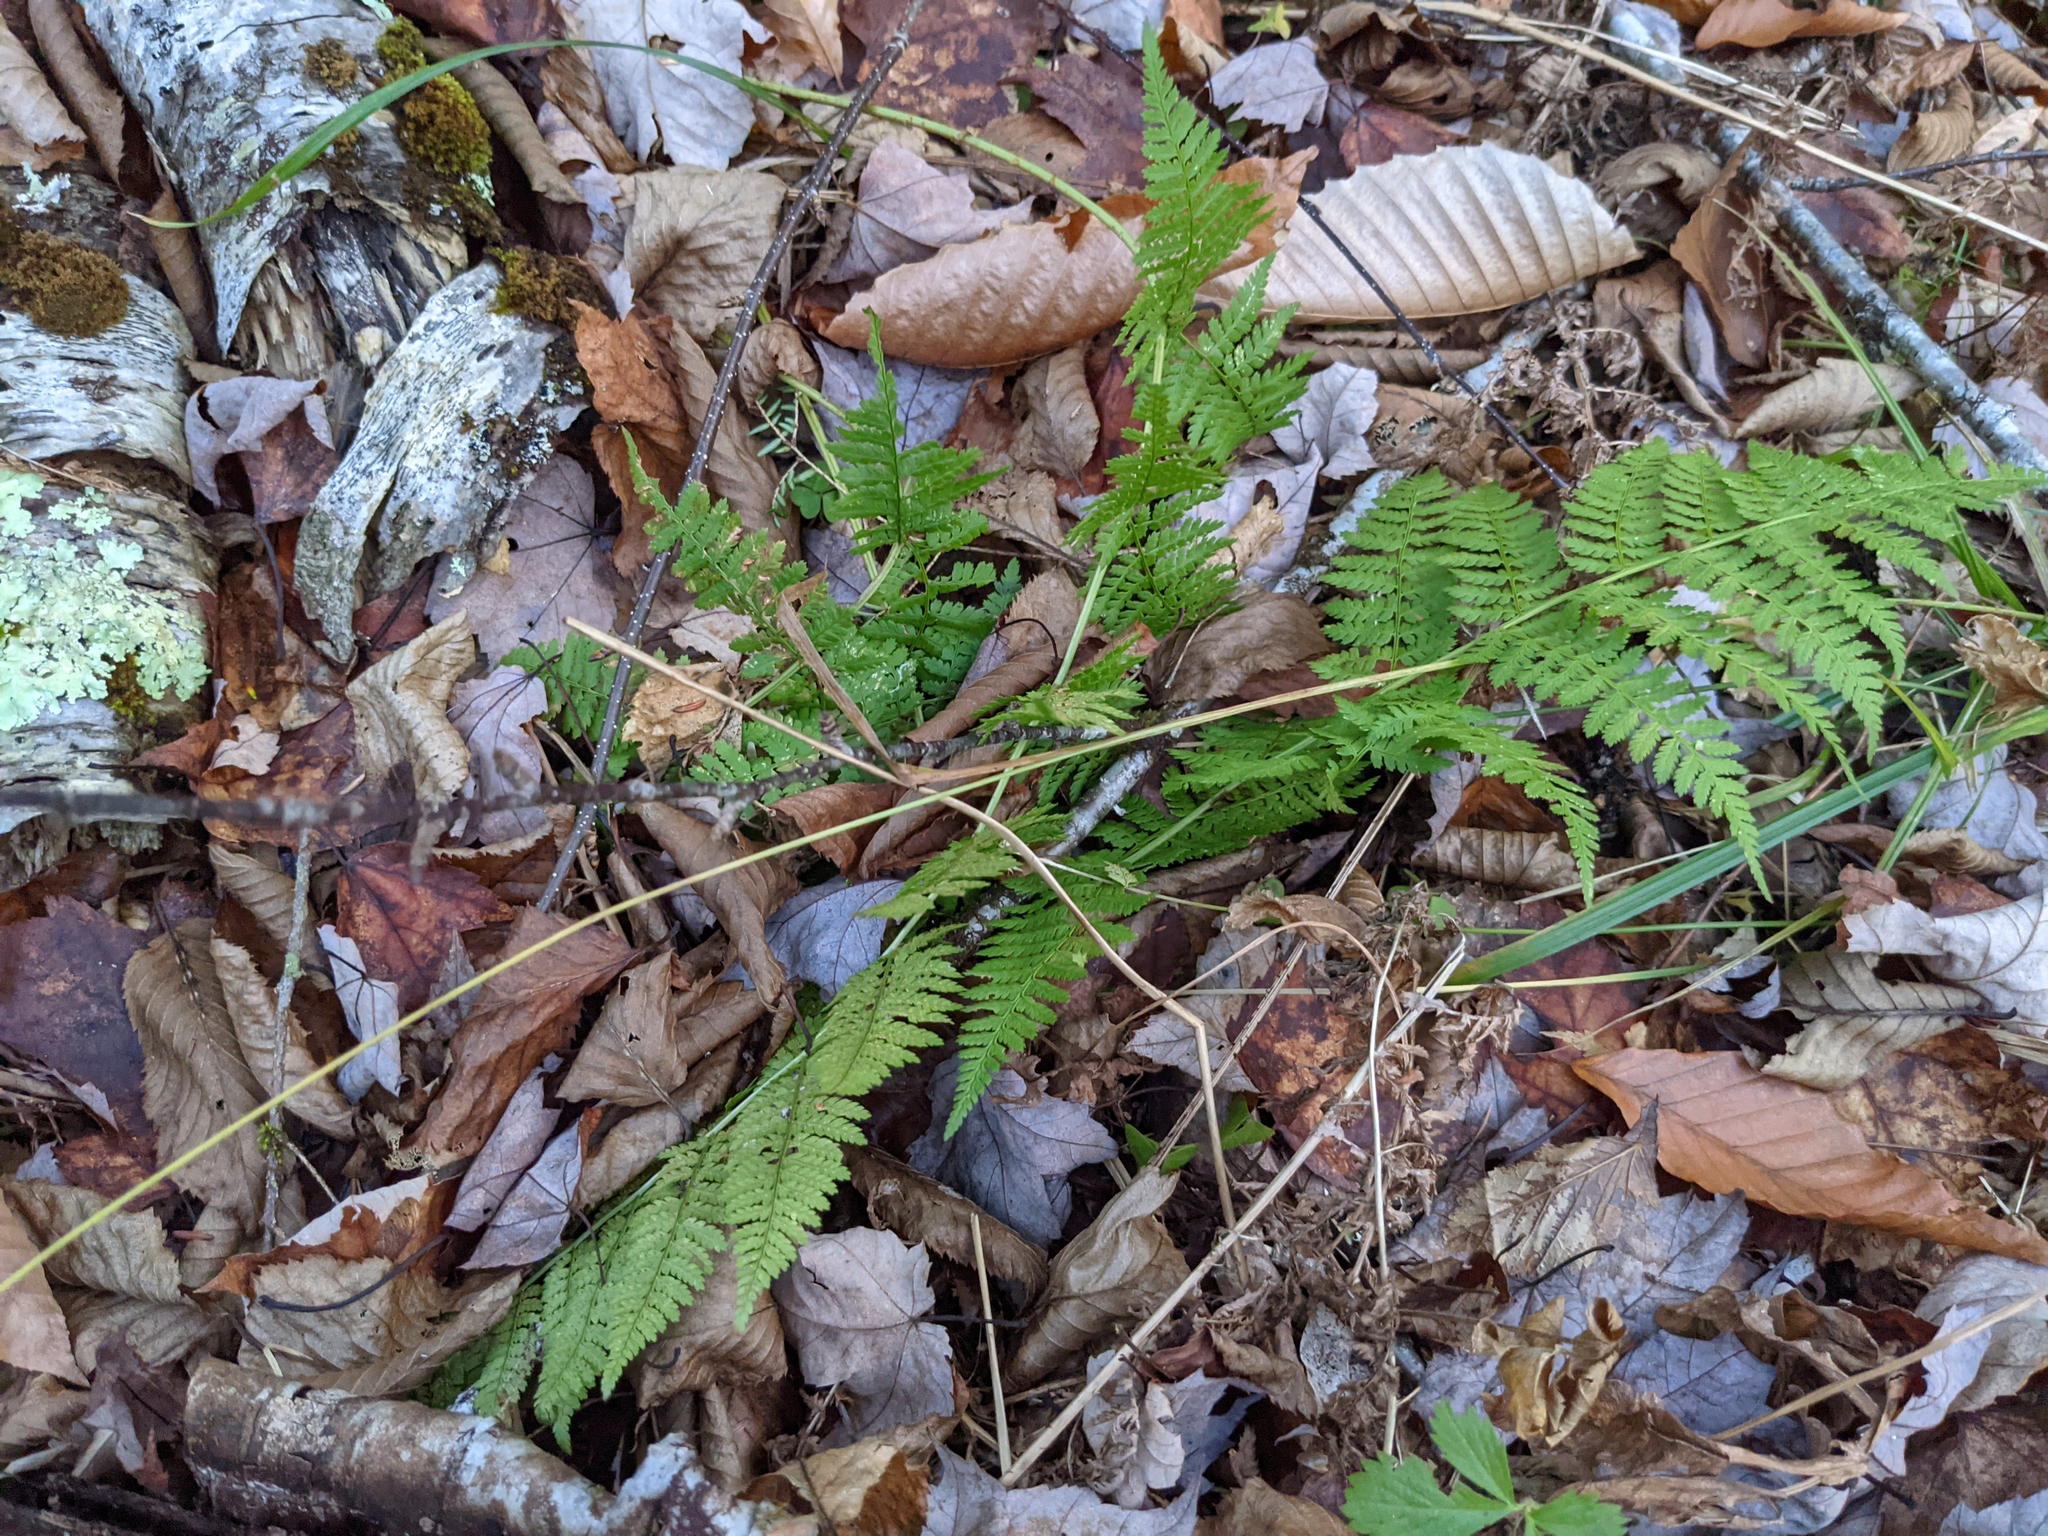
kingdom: Plantae
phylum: Tracheophyta
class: Polypodiopsida
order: Polypodiales
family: Dryopteridaceae
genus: Dryopteris
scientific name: Dryopteris intermedia
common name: Evergreen wood fern
